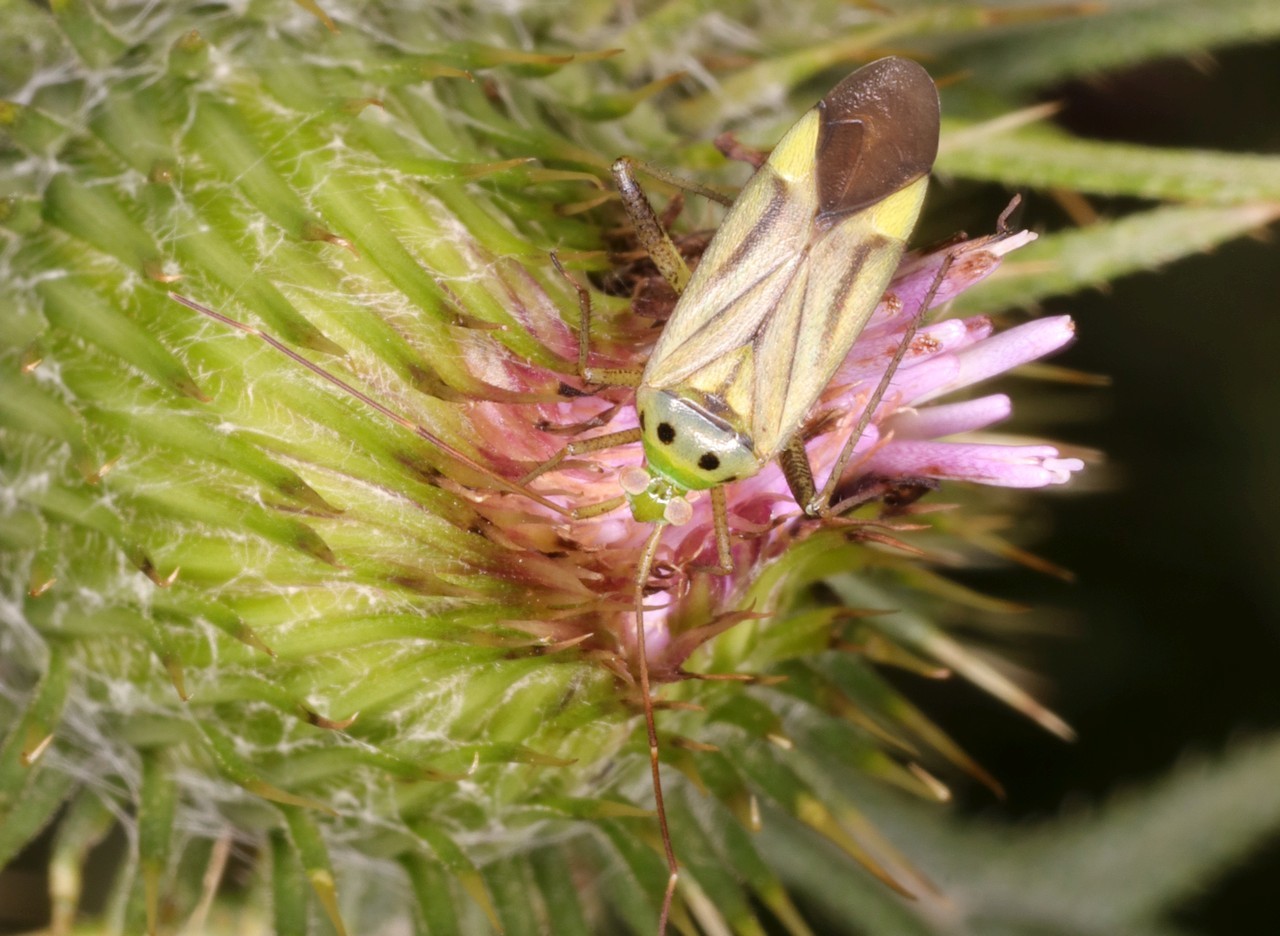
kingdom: Animalia
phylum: Arthropoda
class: Insecta
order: Hemiptera
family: Miridae
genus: Adelphocoris
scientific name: Adelphocoris quadripunctatus
